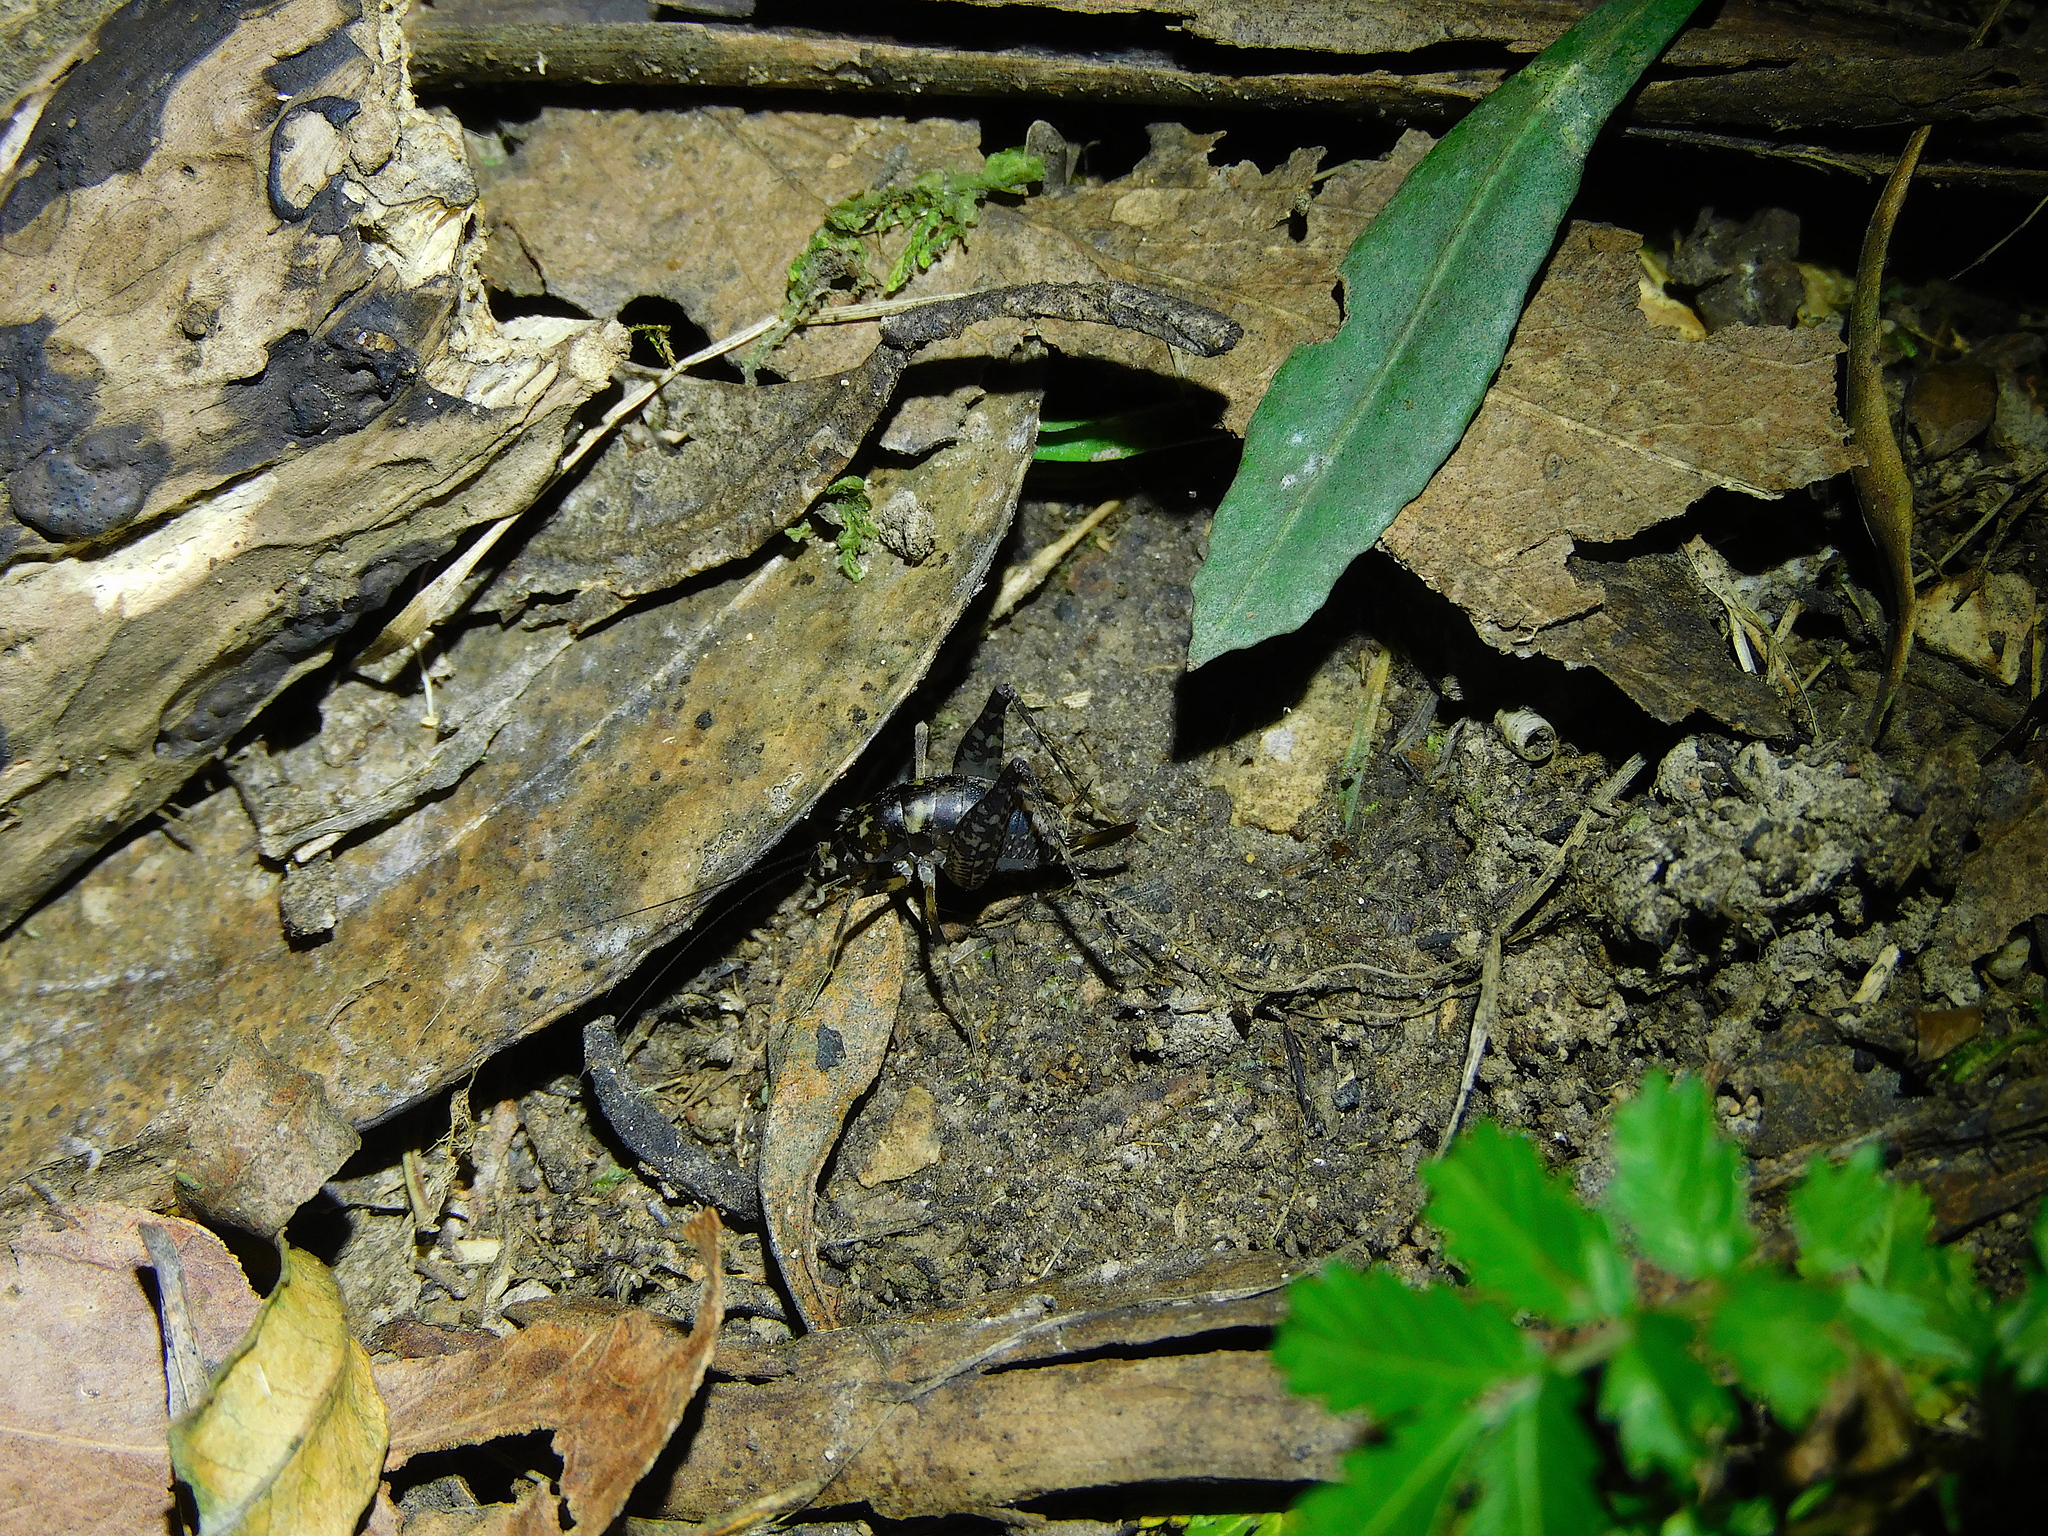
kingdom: Animalia
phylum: Arthropoda
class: Insecta
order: Orthoptera
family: Rhaphidophoridae
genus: Parvotettix
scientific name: Parvotettix domesticus
